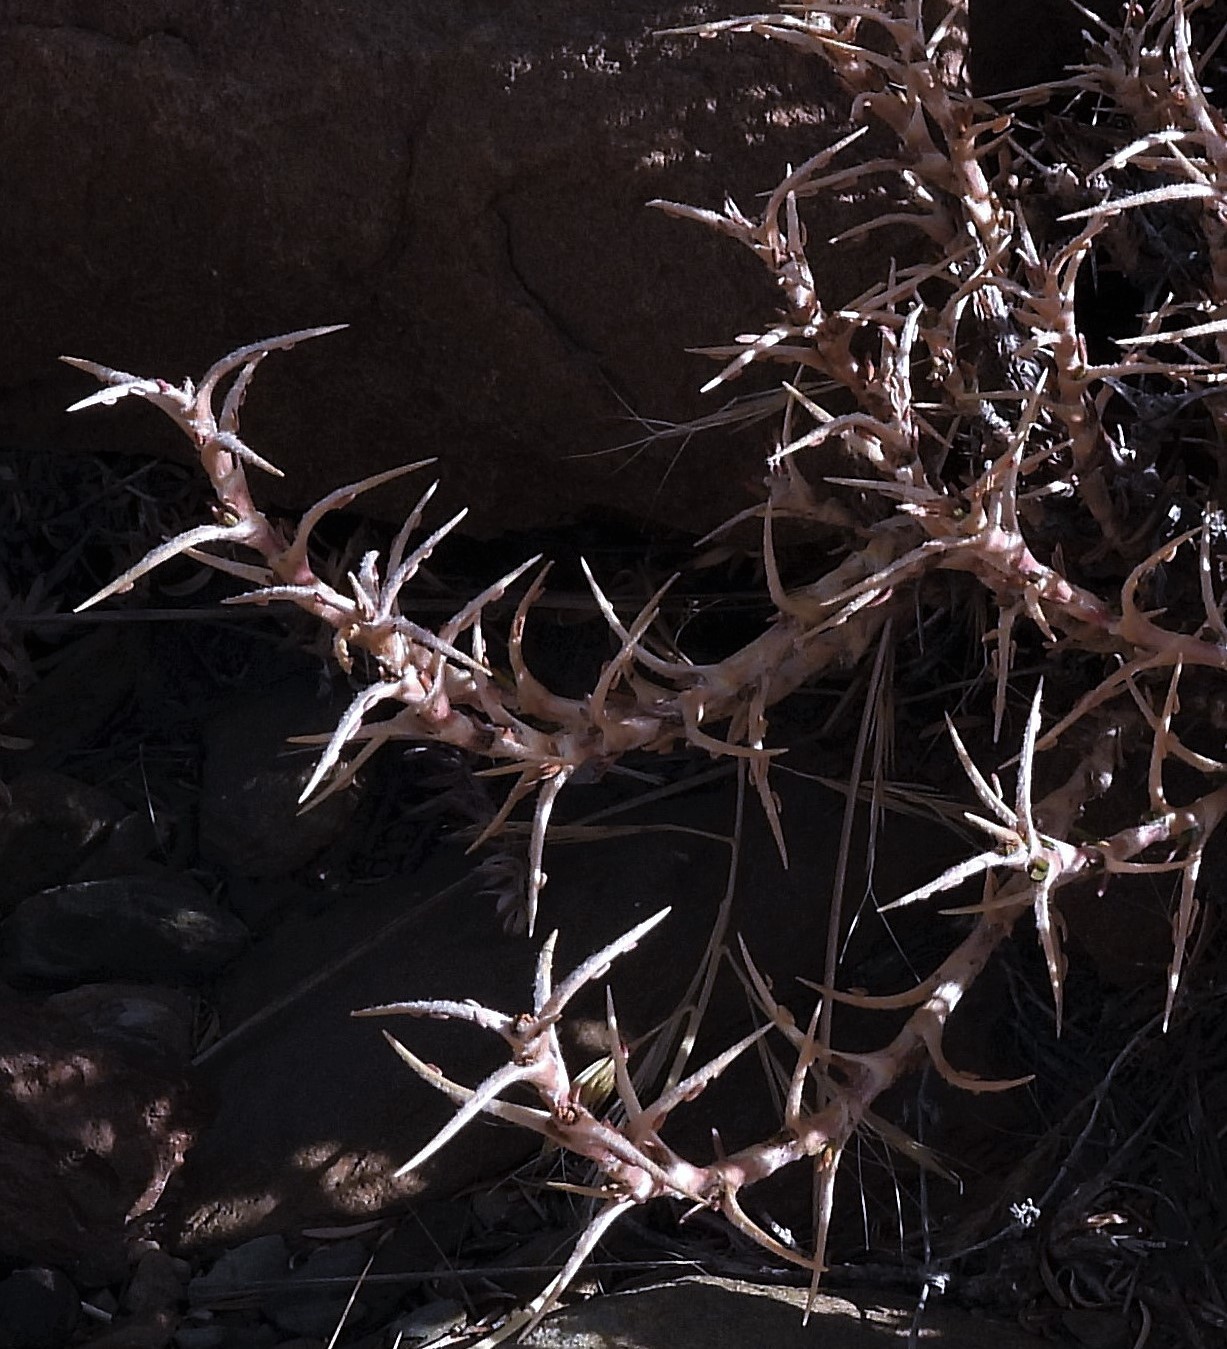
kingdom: Plantae
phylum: Tracheophyta
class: Magnoliopsida
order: Rosales
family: Rosaceae
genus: Margyricarpus
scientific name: Margyricarpus cristatus
